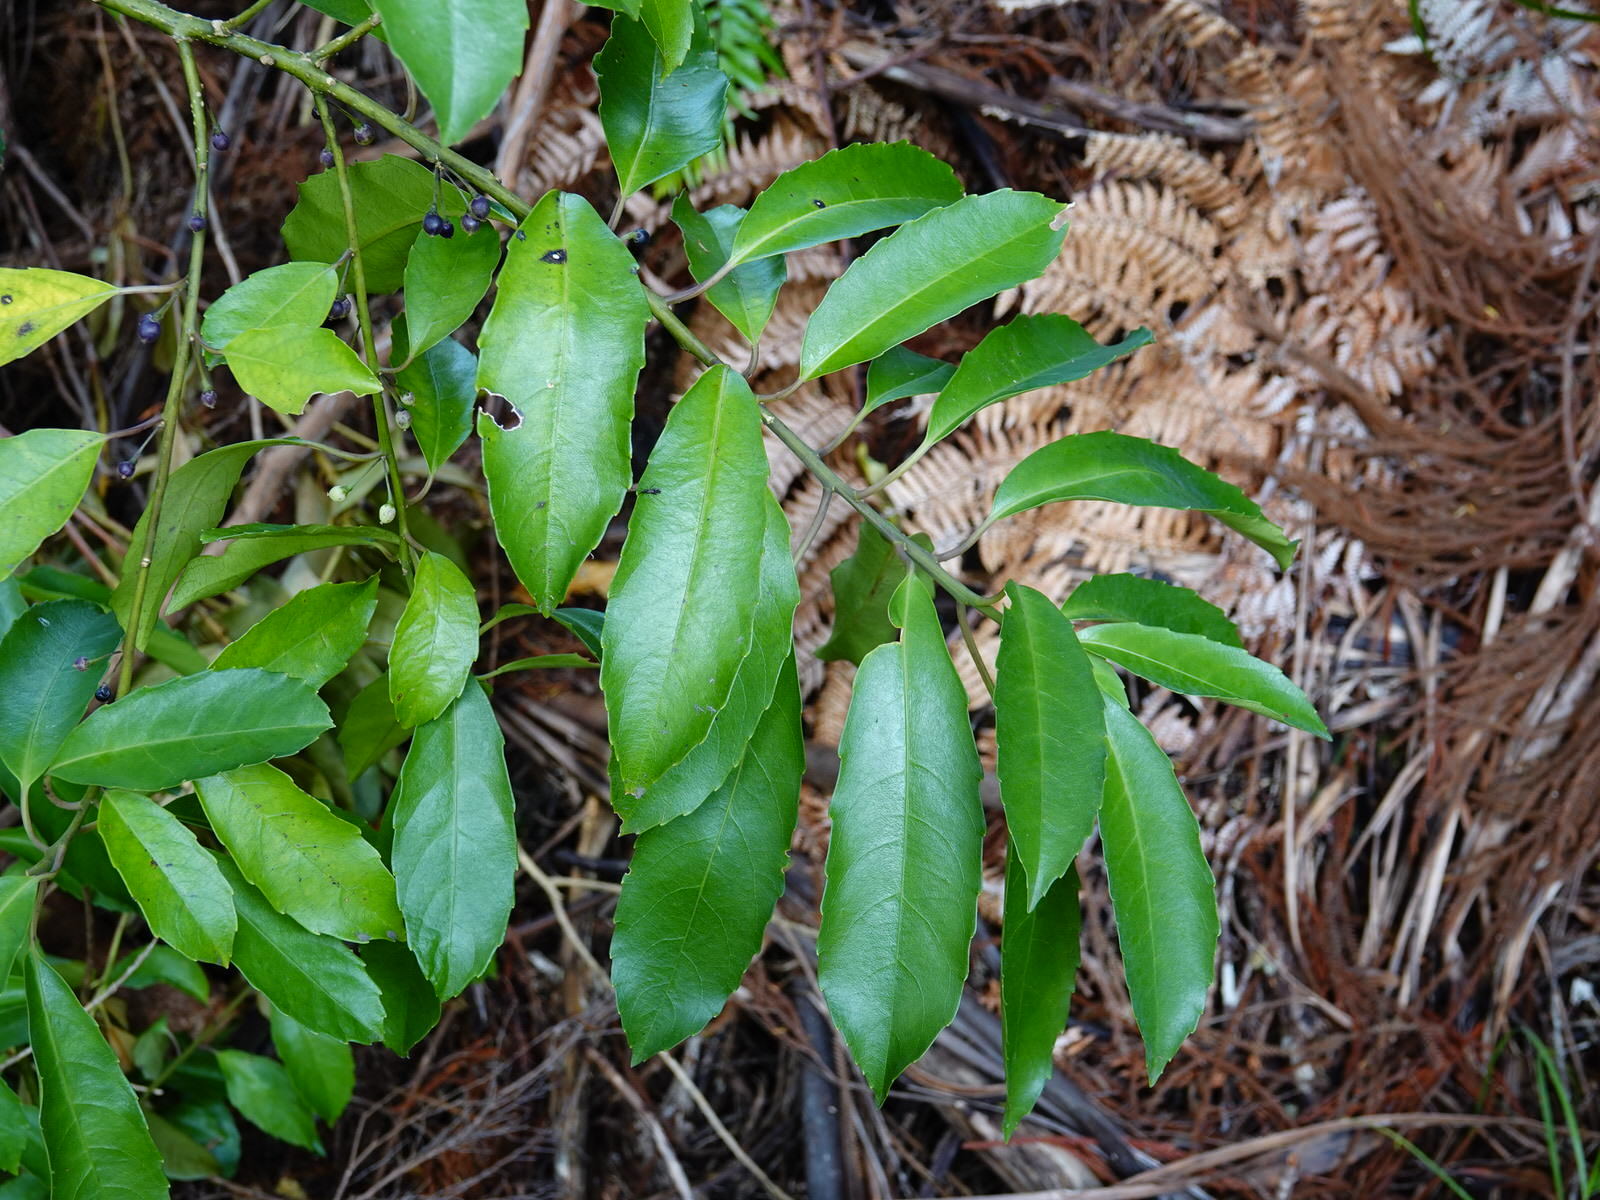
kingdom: Plantae
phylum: Tracheophyta
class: Magnoliopsida
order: Malpighiales
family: Violaceae
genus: Melicytus
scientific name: Melicytus macrophyllus
